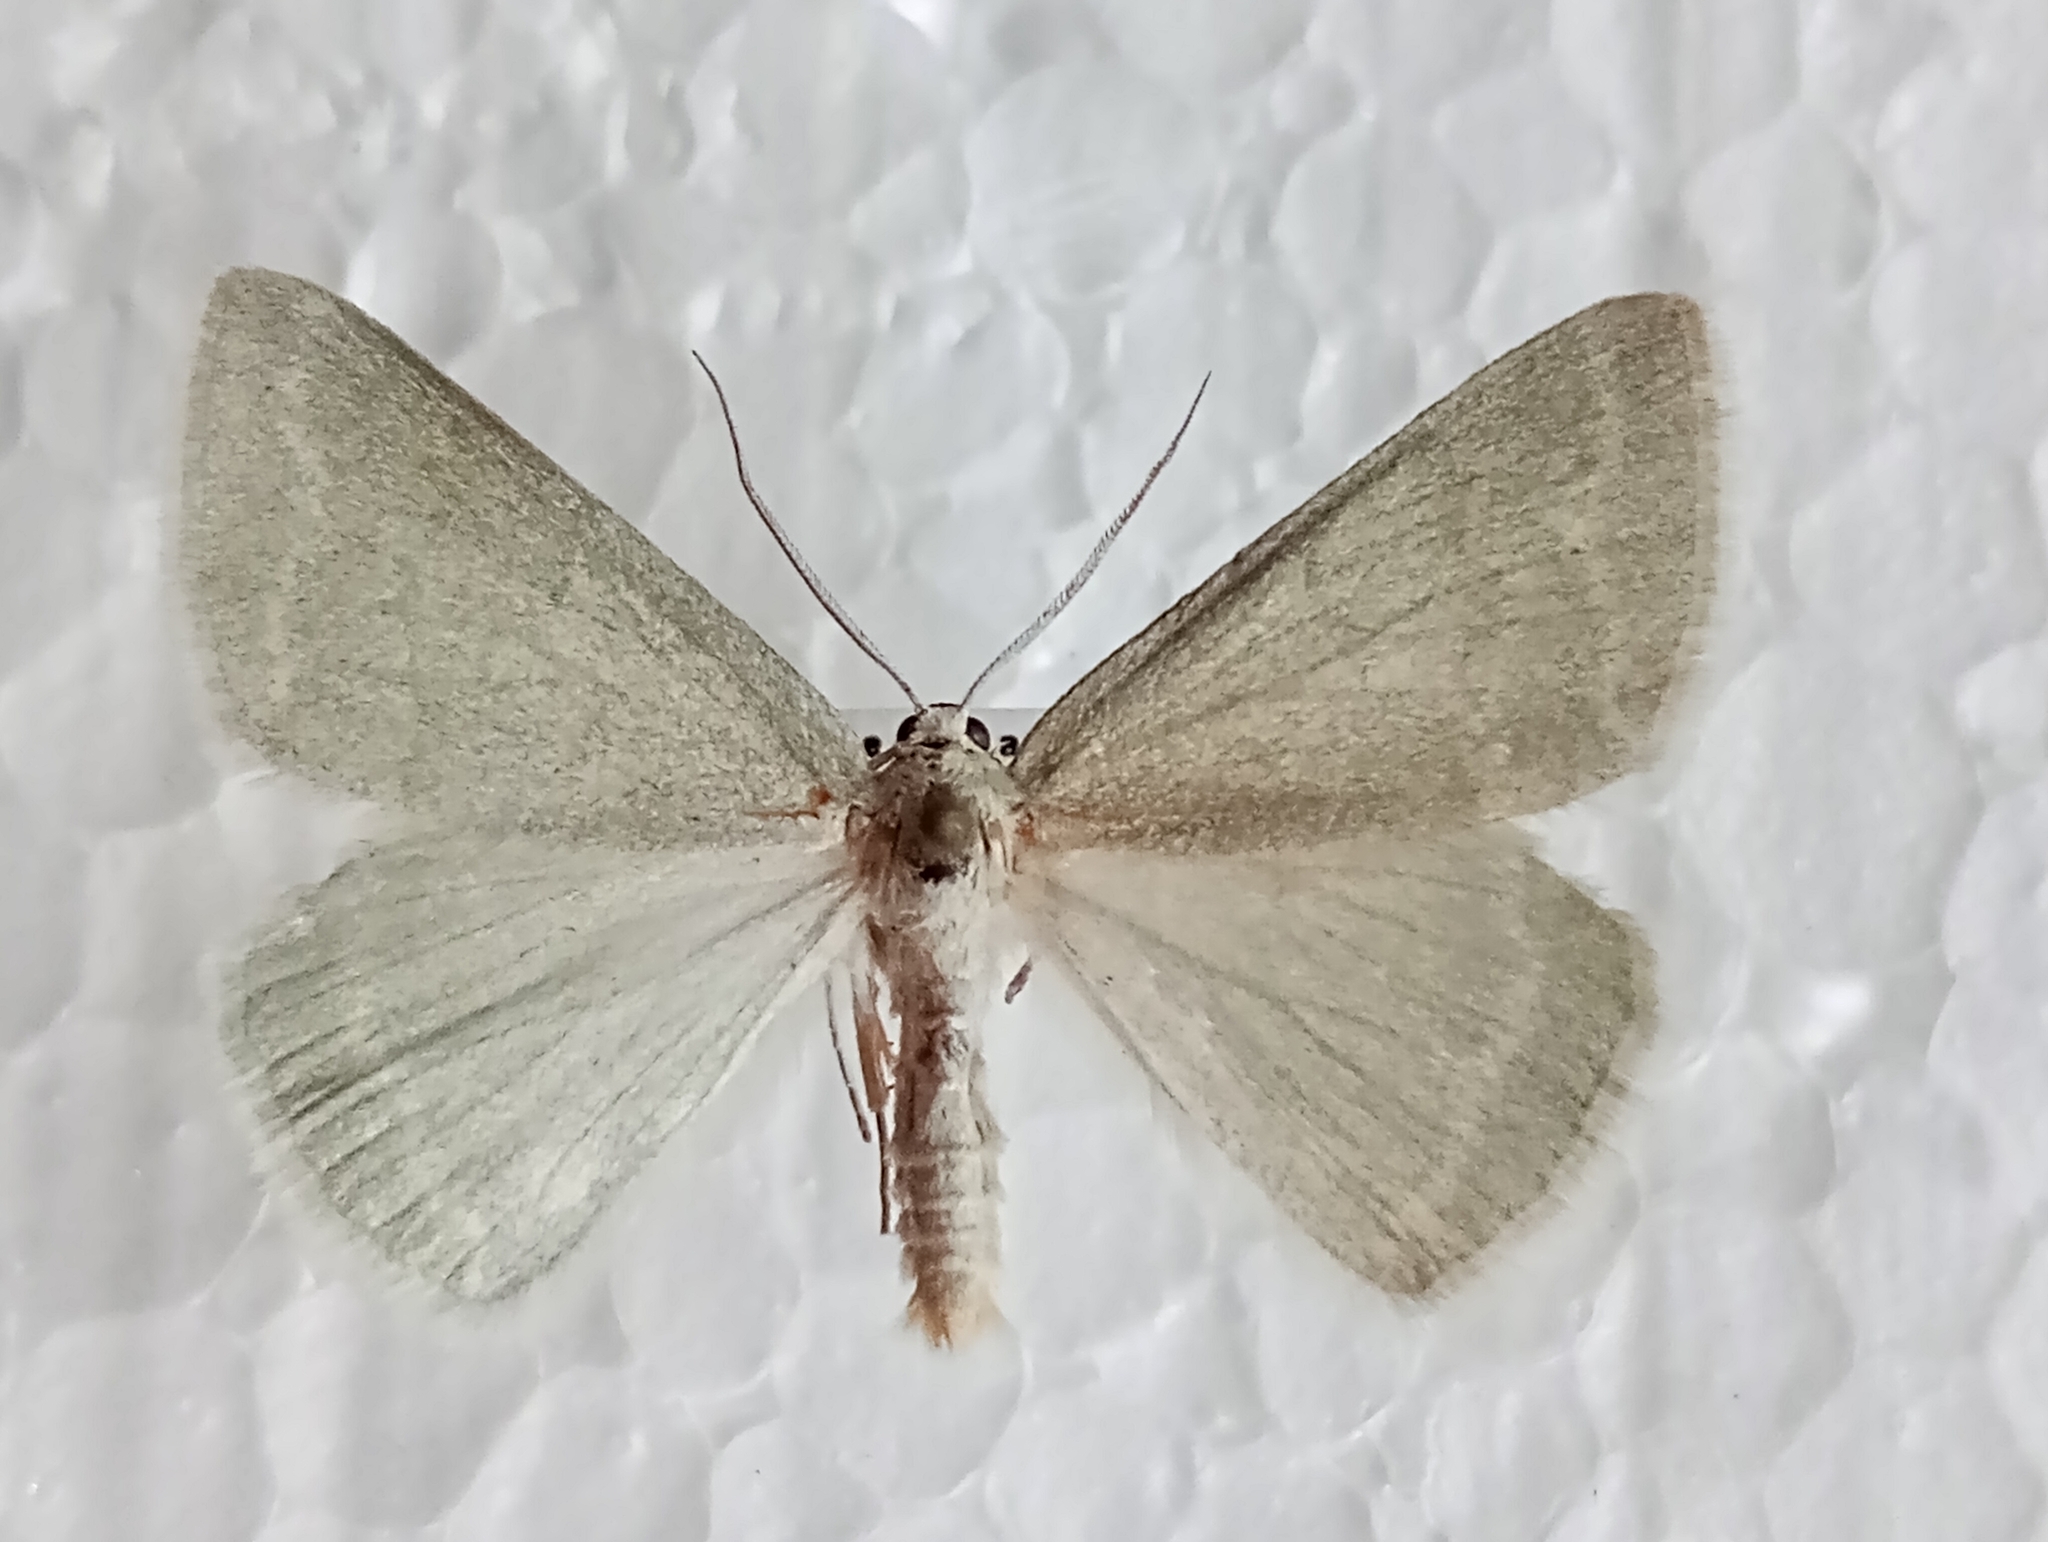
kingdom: Animalia
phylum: Arthropoda
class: Insecta
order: Lepidoptera
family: Geometridae
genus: Pseudoterpna
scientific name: Pseudoterpna pruinata
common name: Grass emerald
